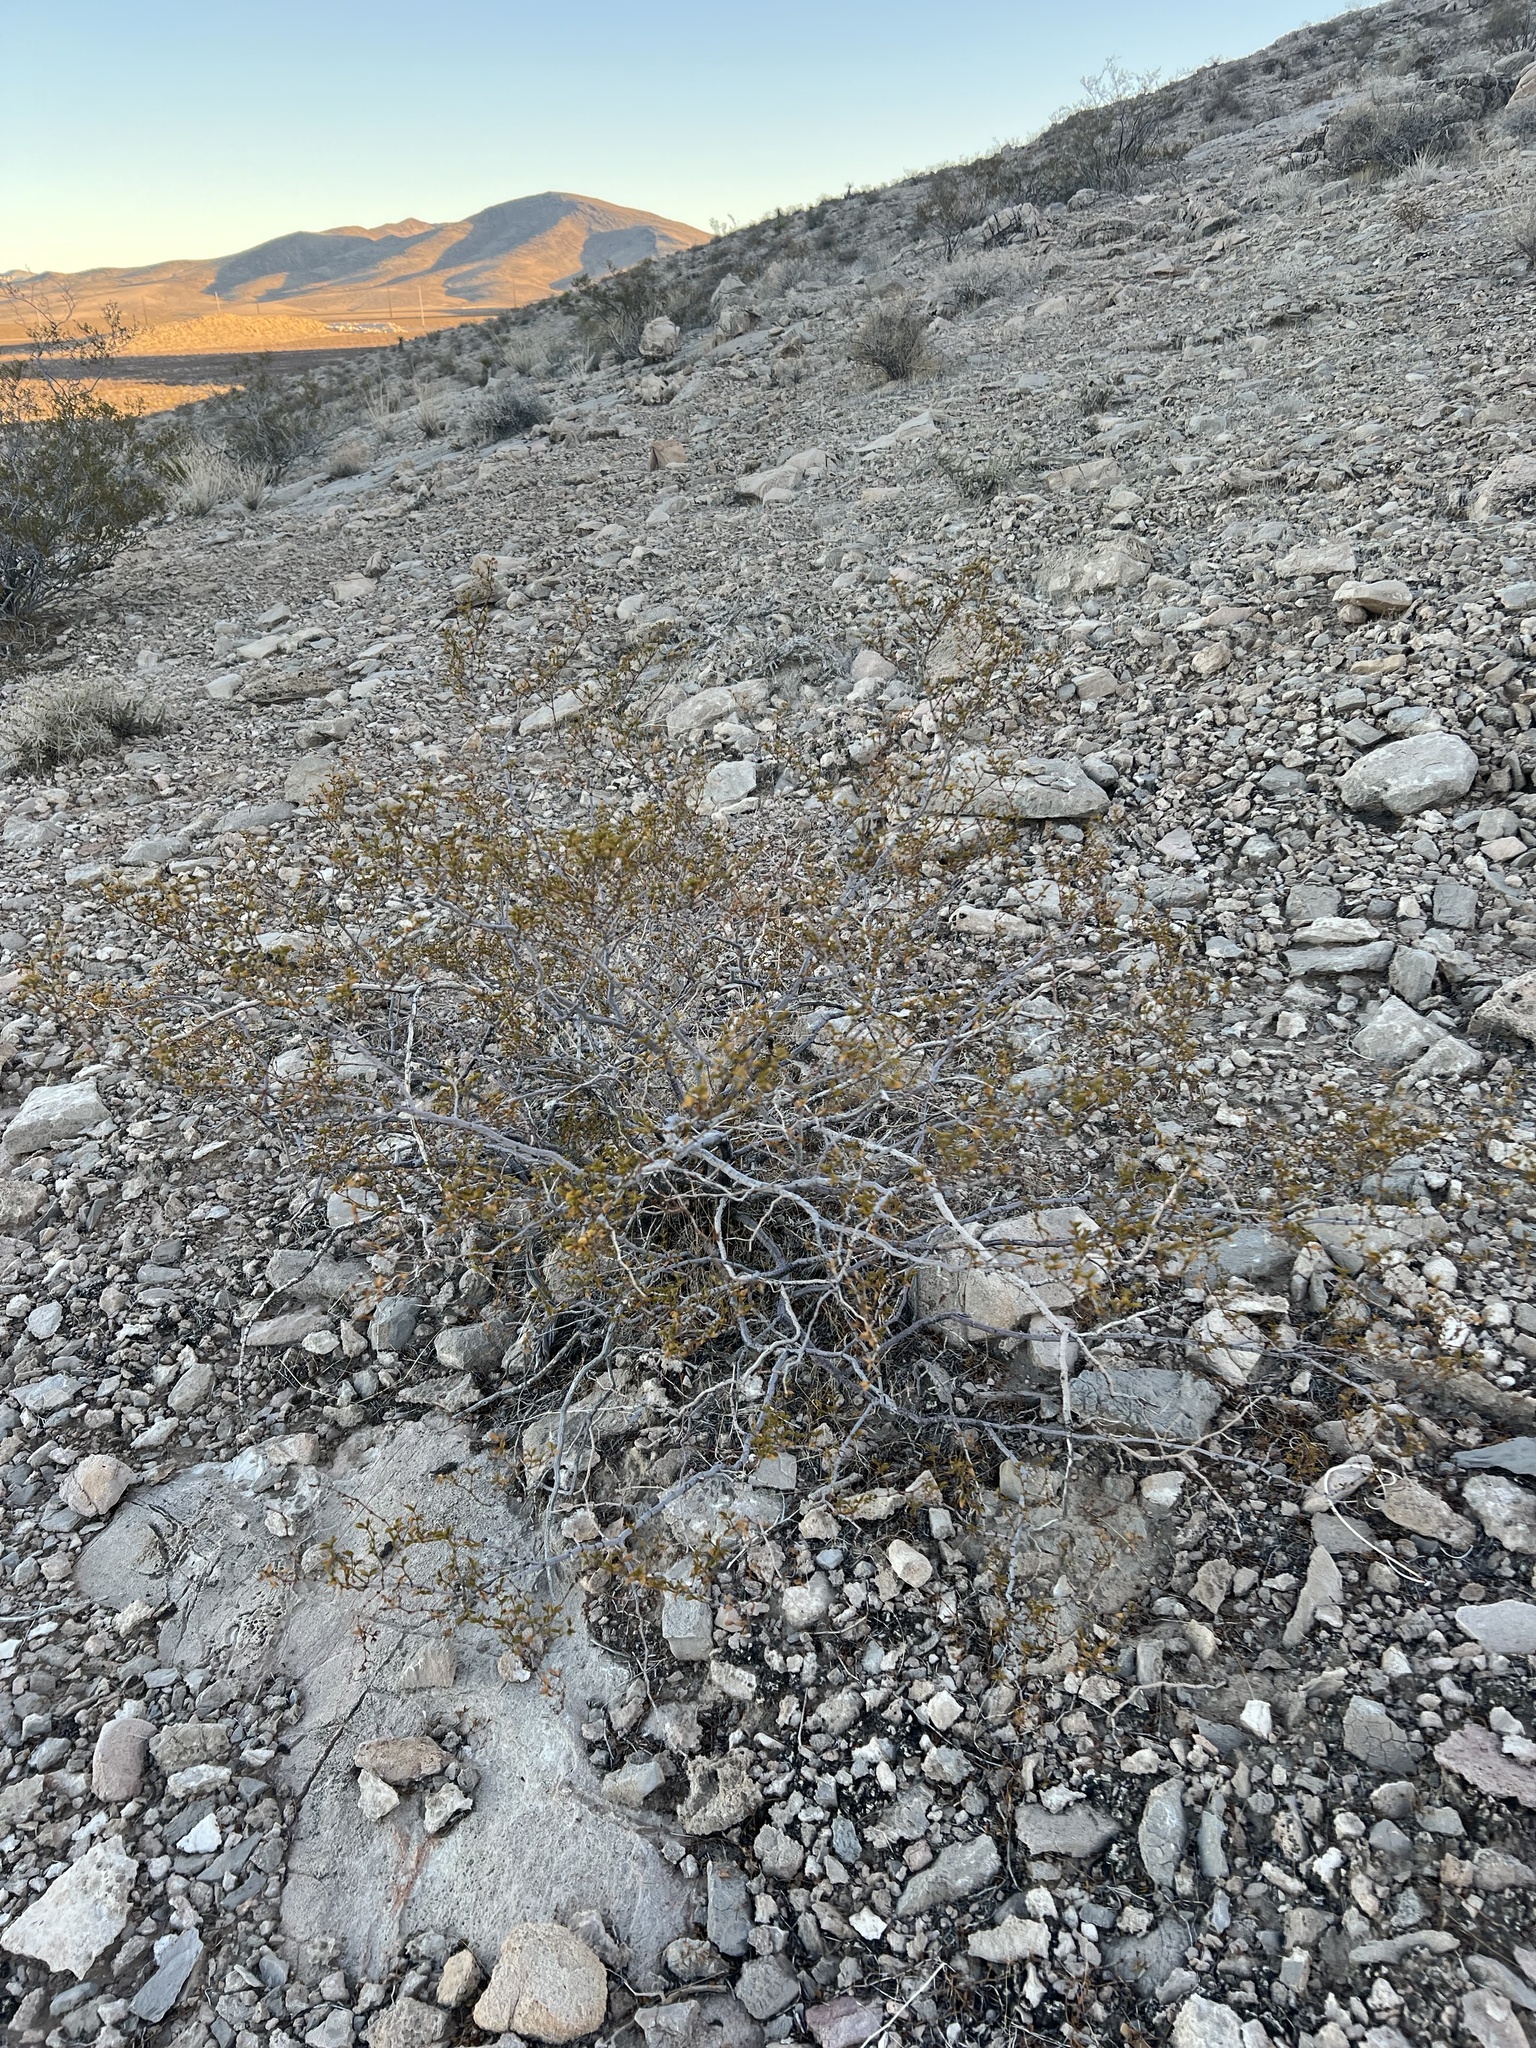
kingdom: Plantae
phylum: Tracheophyta
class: Magnoliopsida
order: Zygophyllales
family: Zygophyllaceae
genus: Larrea
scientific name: Larrea tridentata
